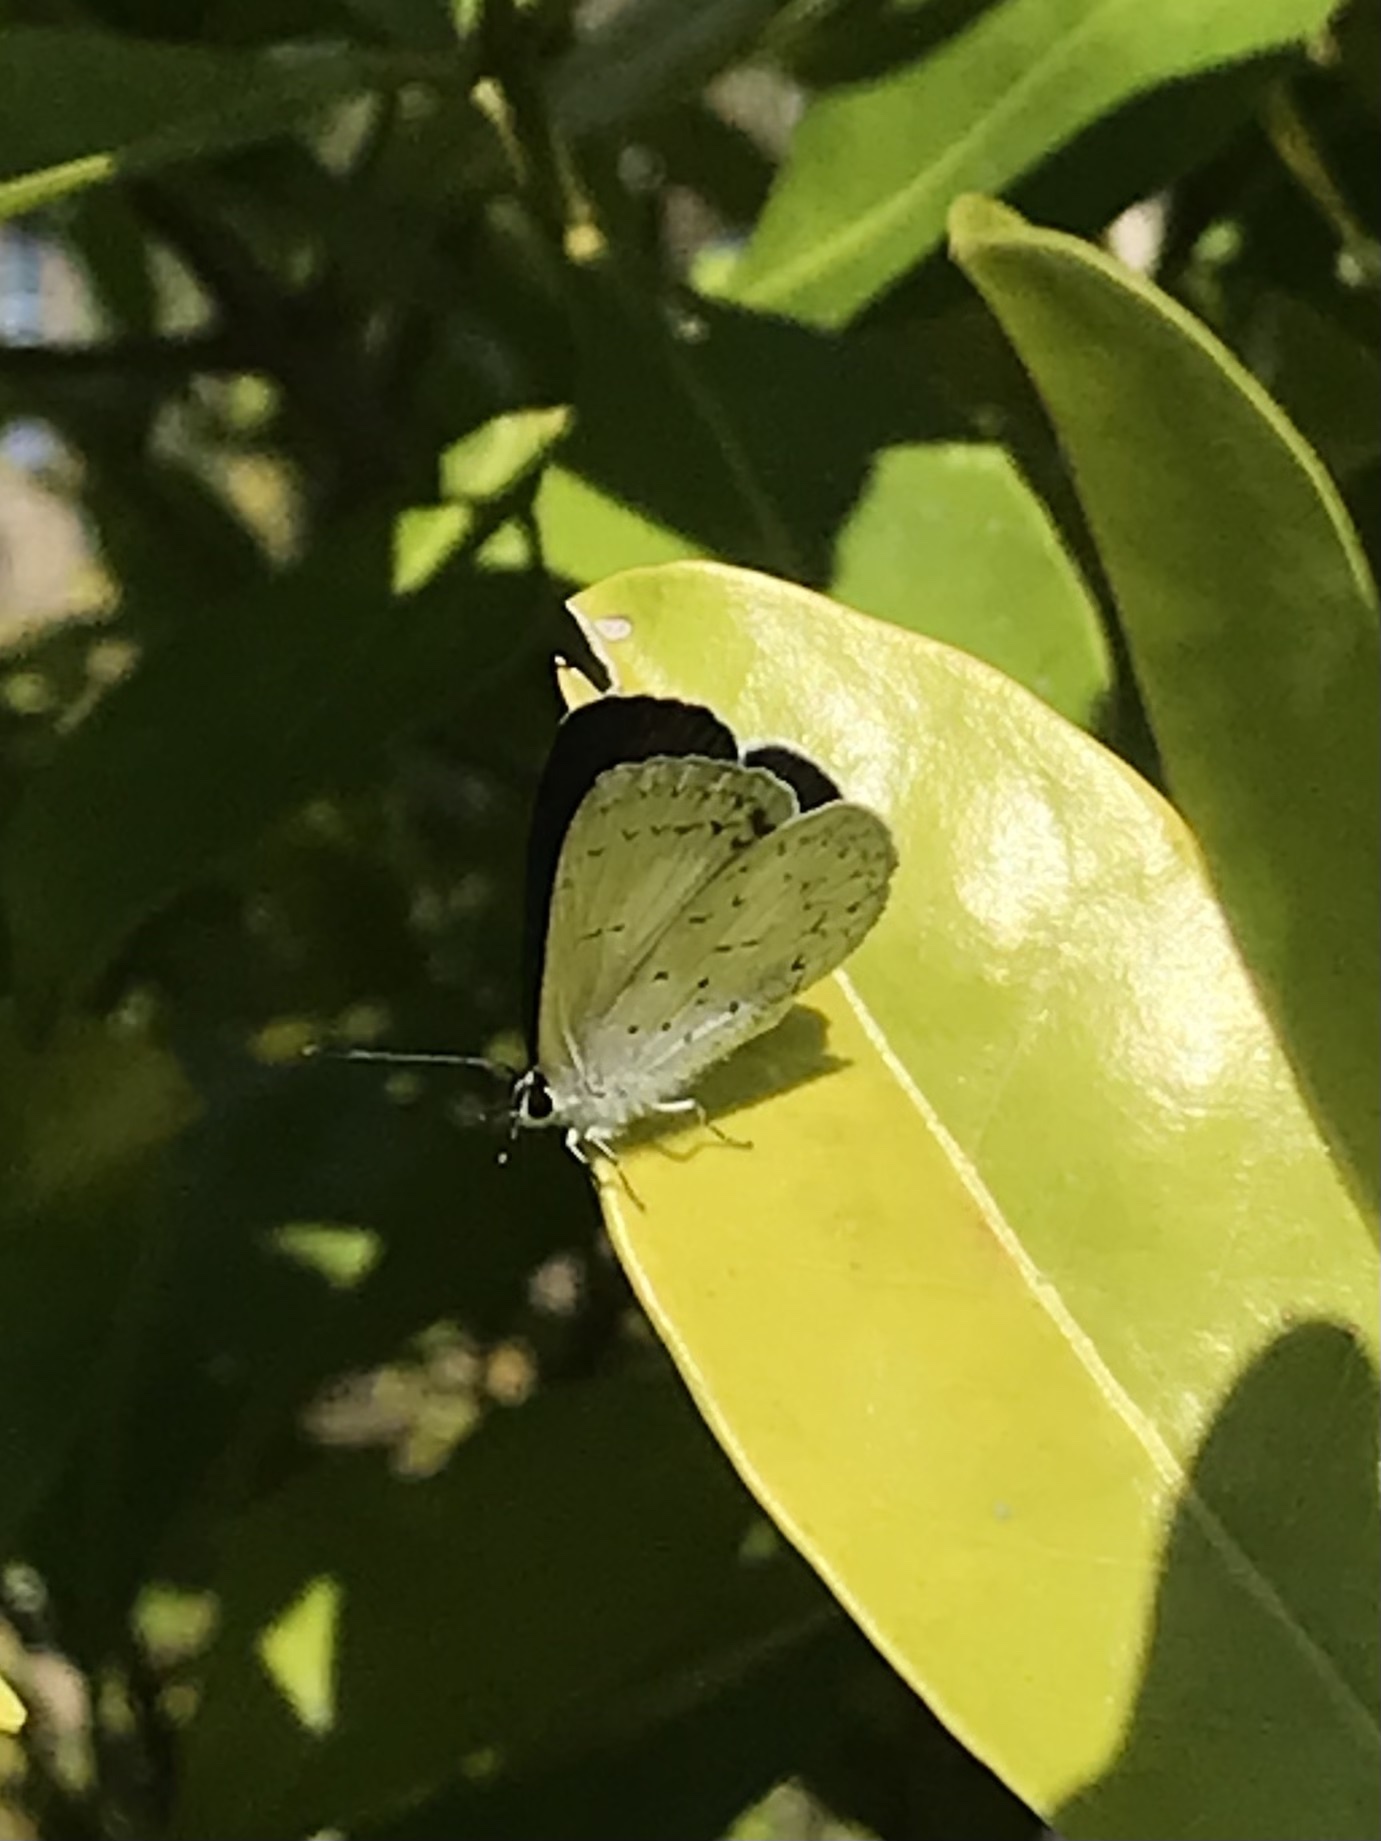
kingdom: Animalia
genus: Eirmocides
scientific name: Eirmocides
